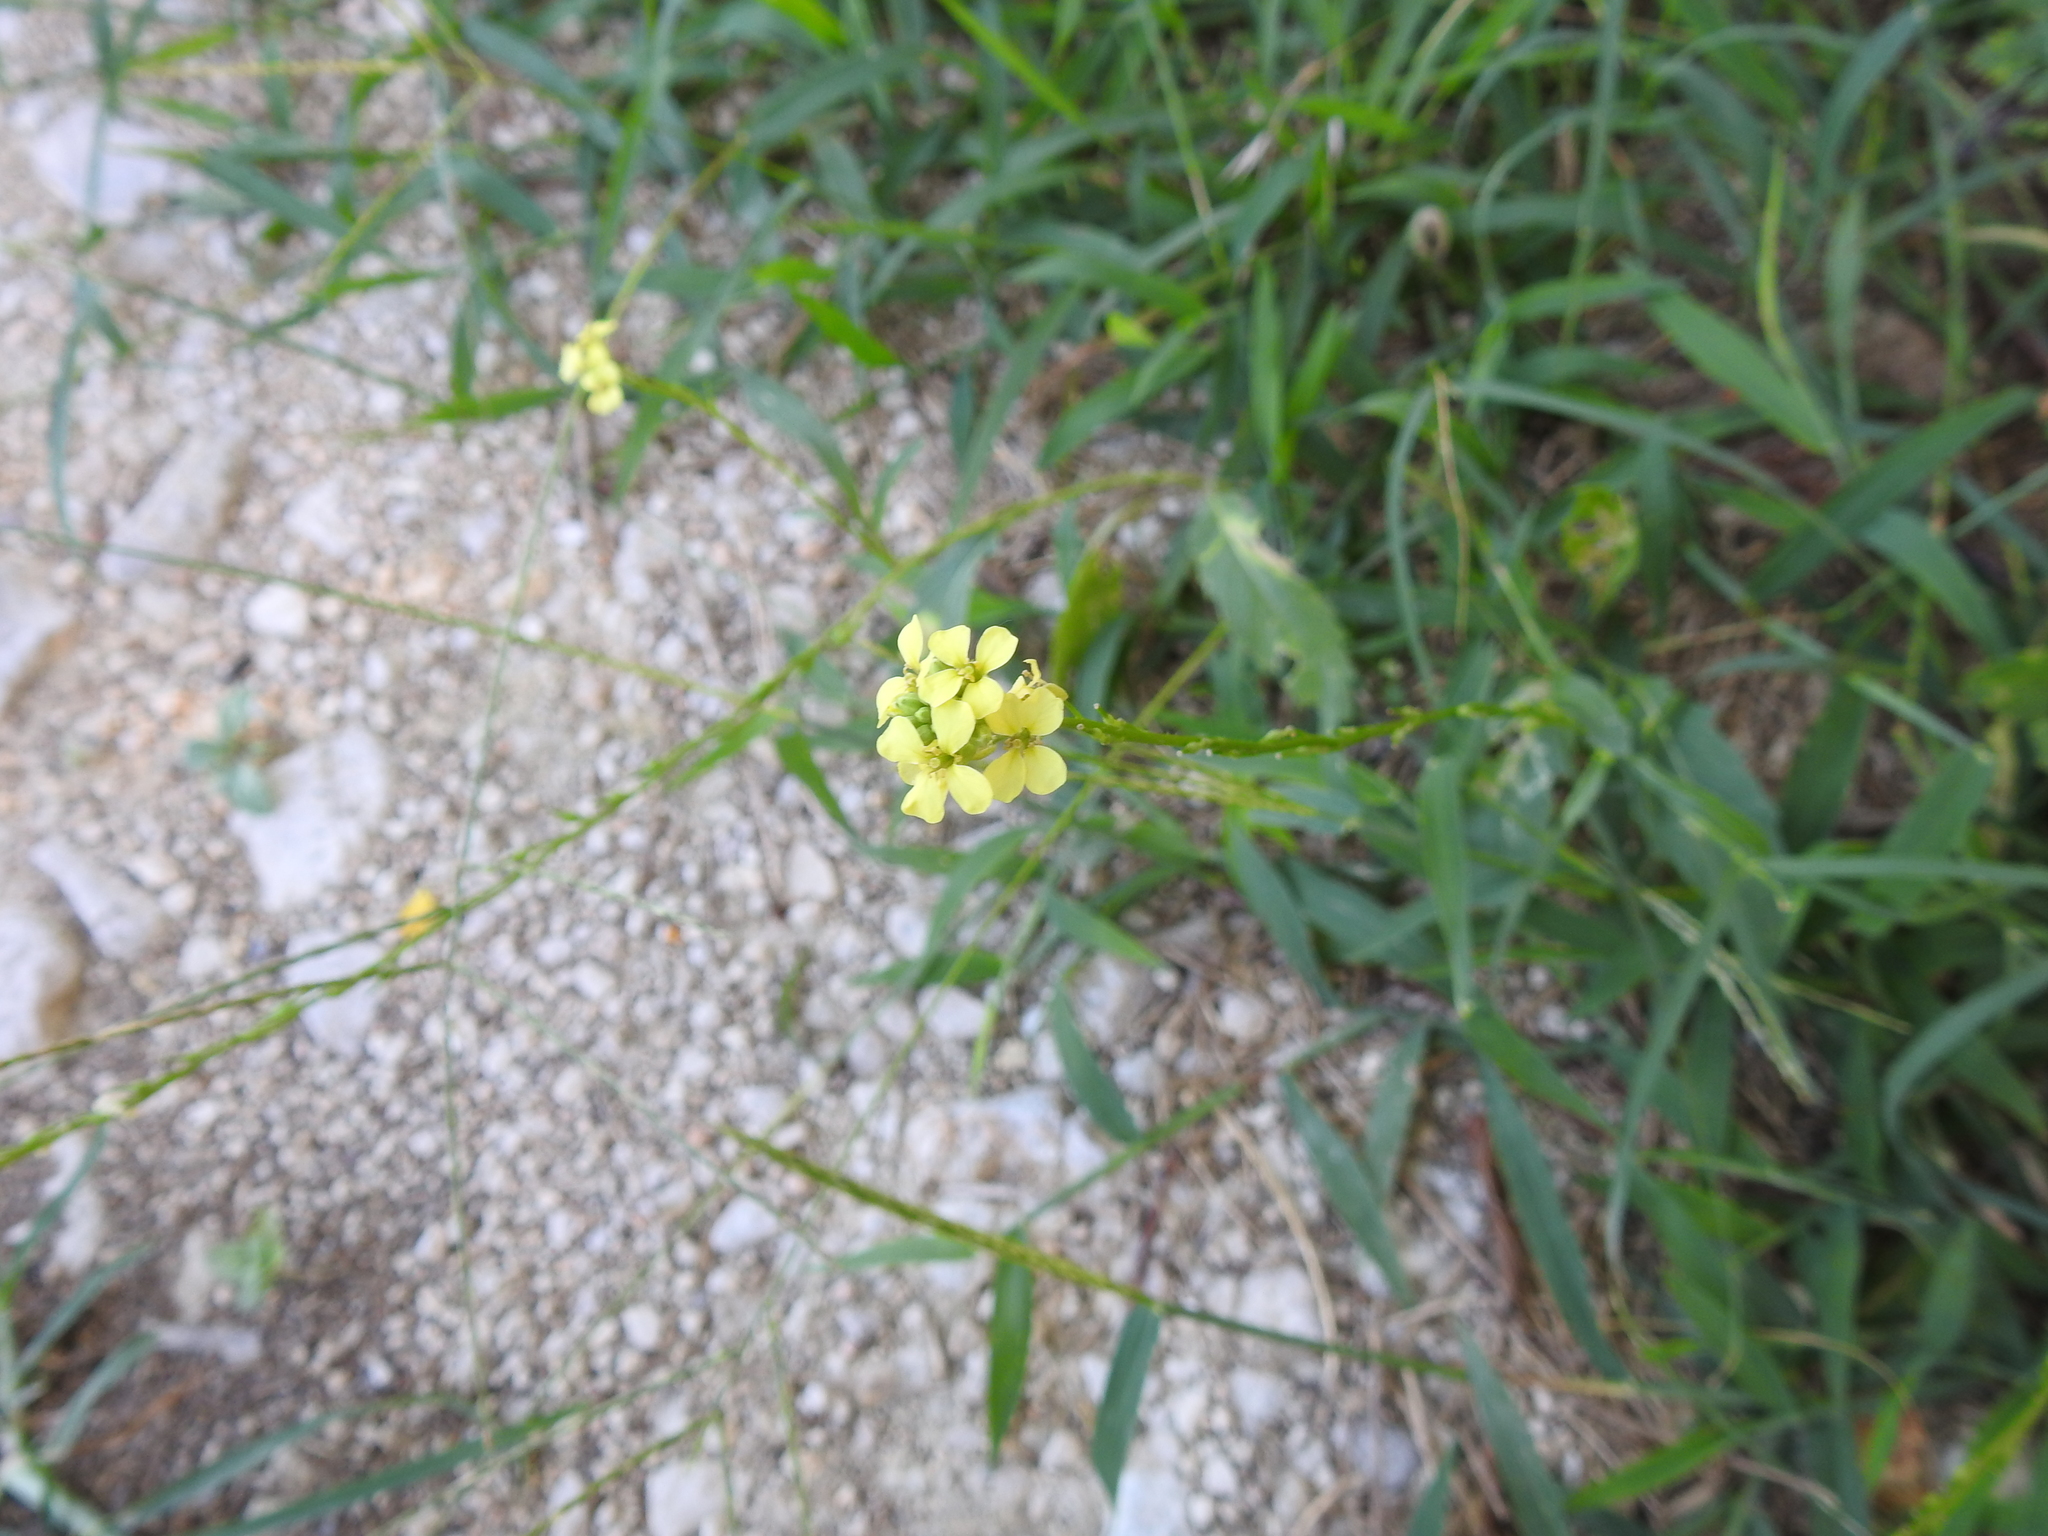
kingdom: Plantae
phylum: Tracheophyta
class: Magnoliopsida
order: Brassicales
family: Brassicaceae
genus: Rapistrum
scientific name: Rapistrum rugosum
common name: Annual bastardcabbage
